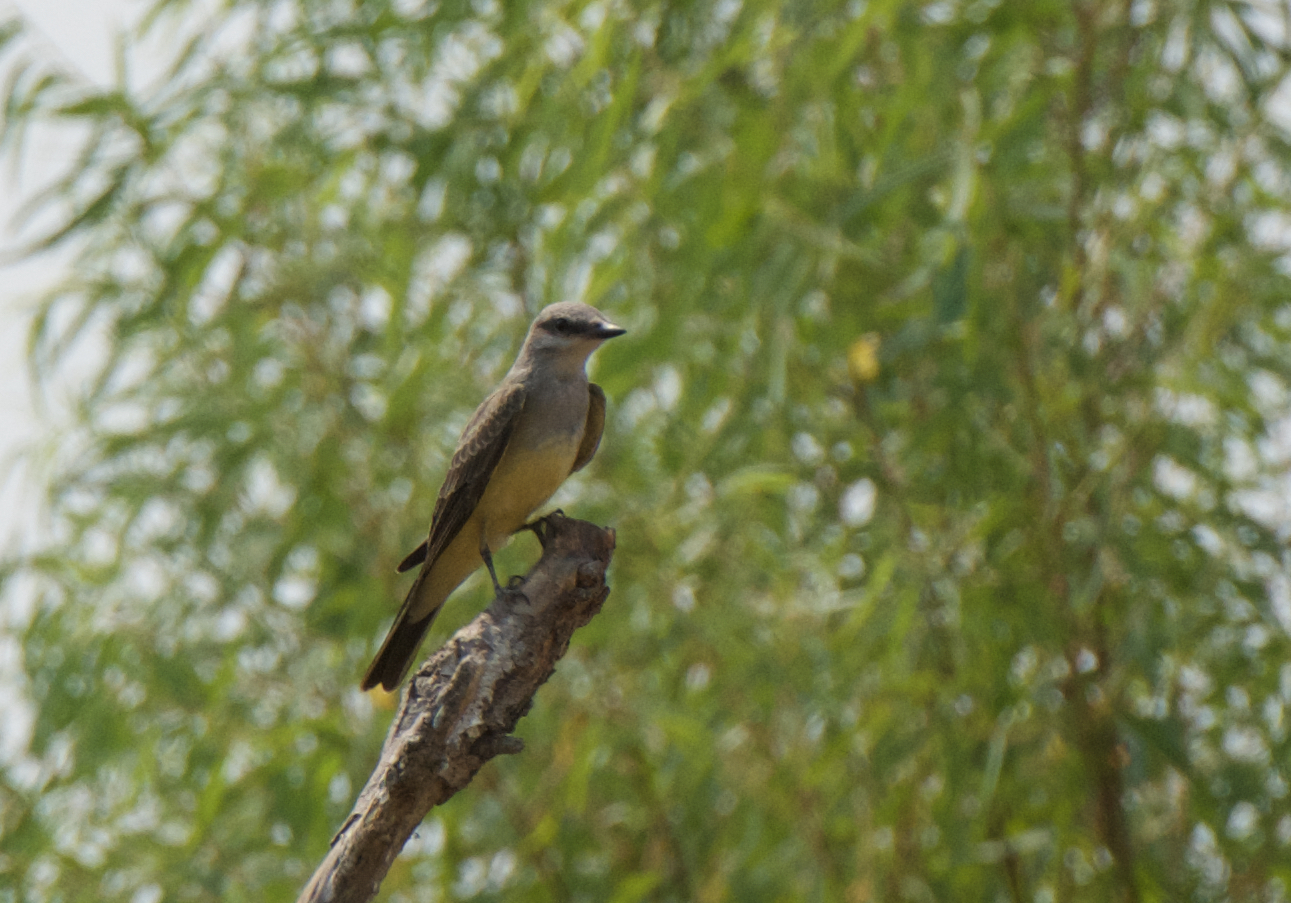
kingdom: Animalia
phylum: Chordata
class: Aves
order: Passeriformes
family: Tyrannidae
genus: Tyrannus
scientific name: Tyrannus verticalis
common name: Western kingbird
